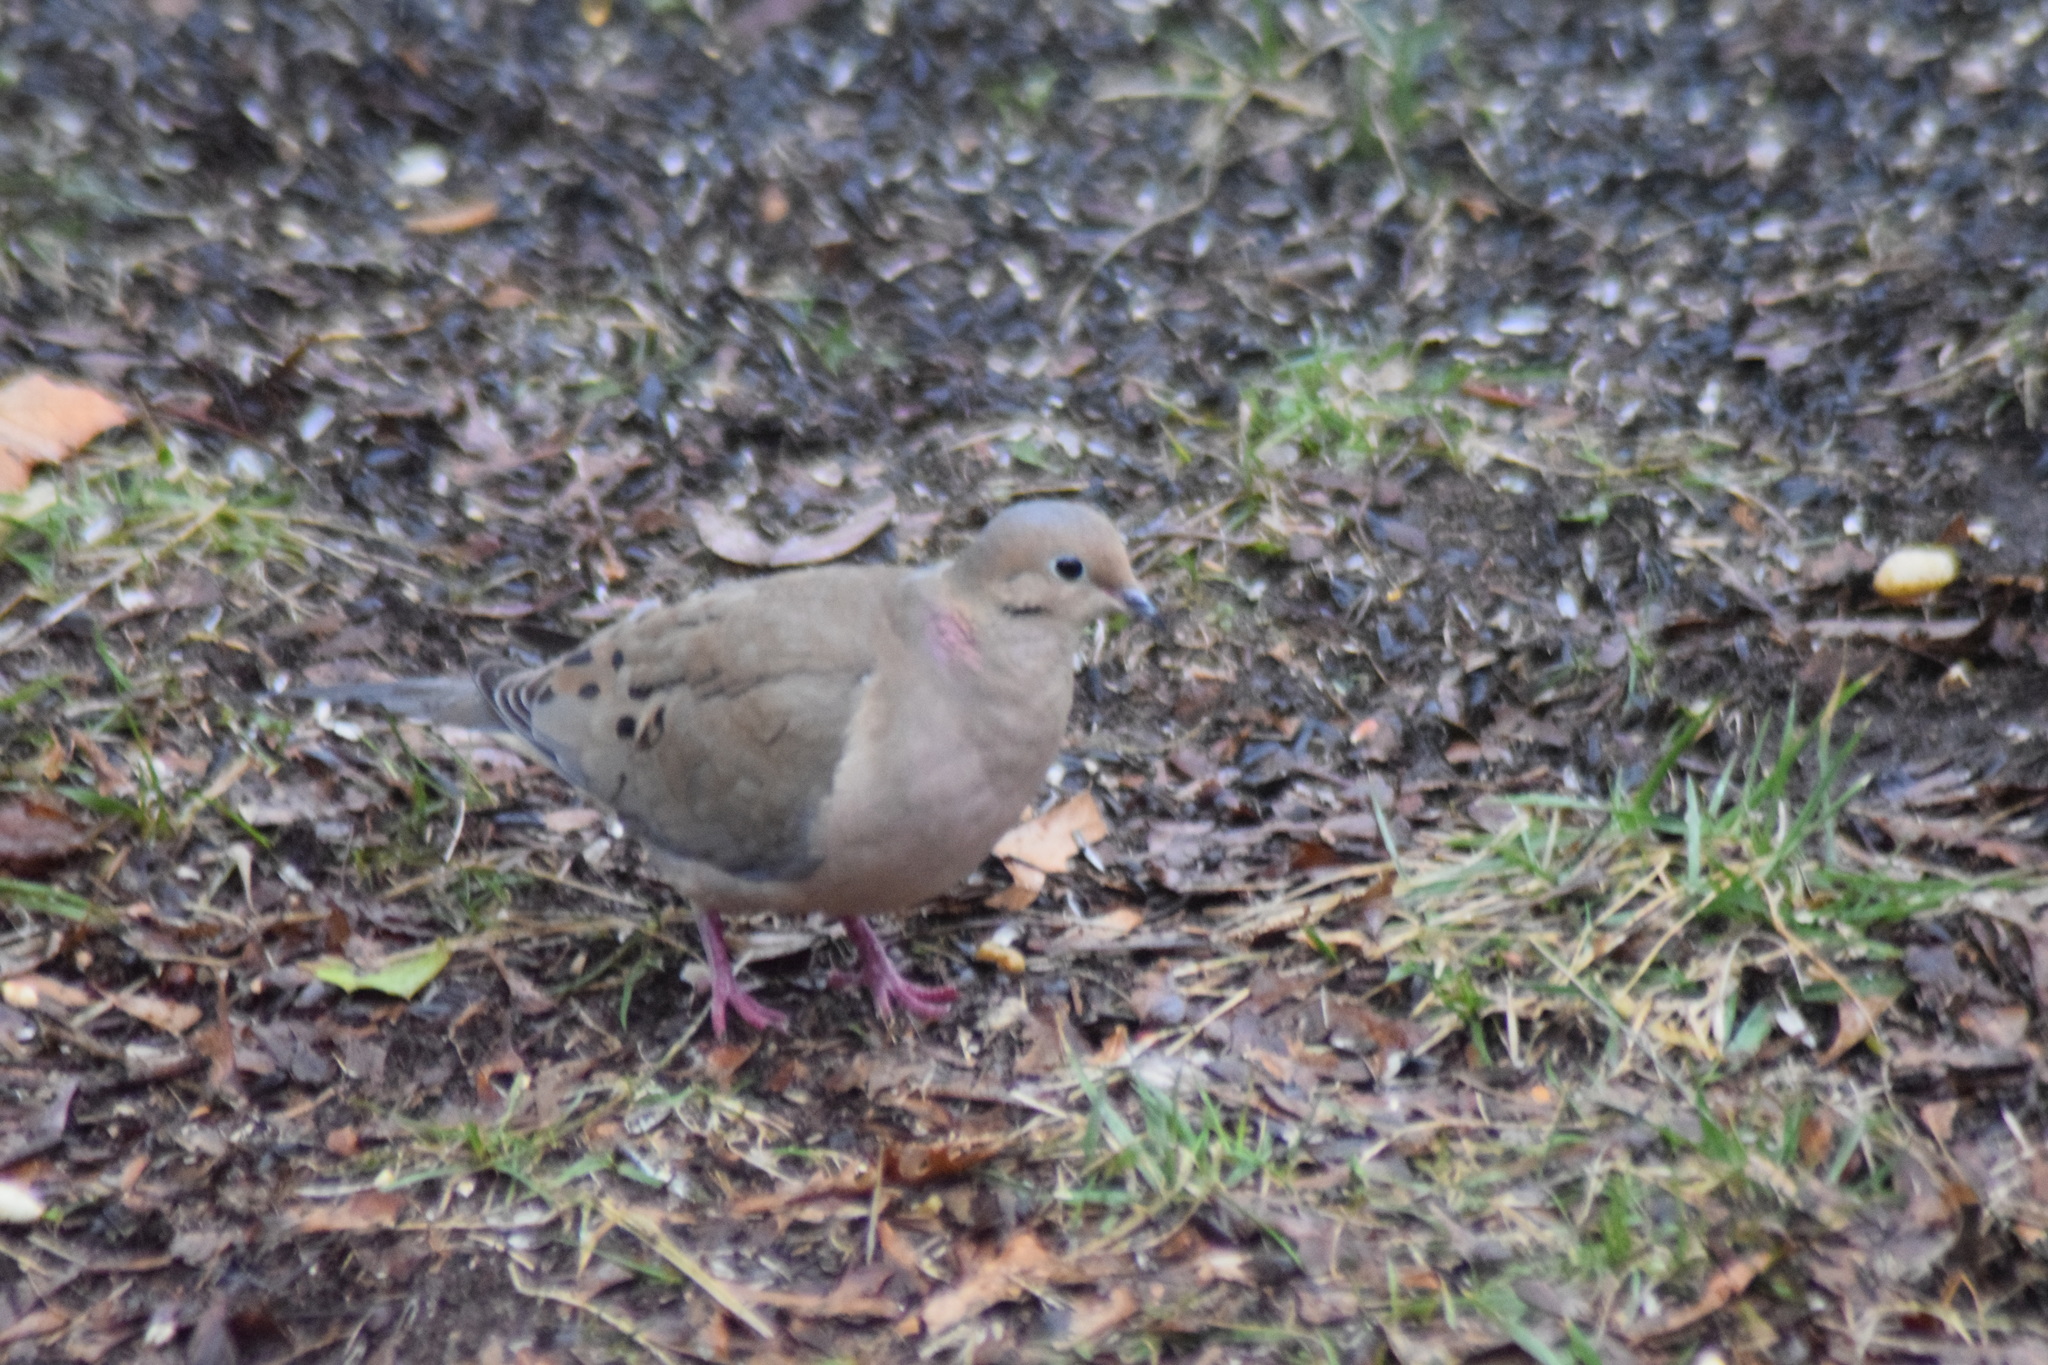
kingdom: Animalia
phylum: Chordata
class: Aves
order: Columbiformes
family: Columbidae
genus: Zenaida
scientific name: Zenaida macroura
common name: Mourning dove
